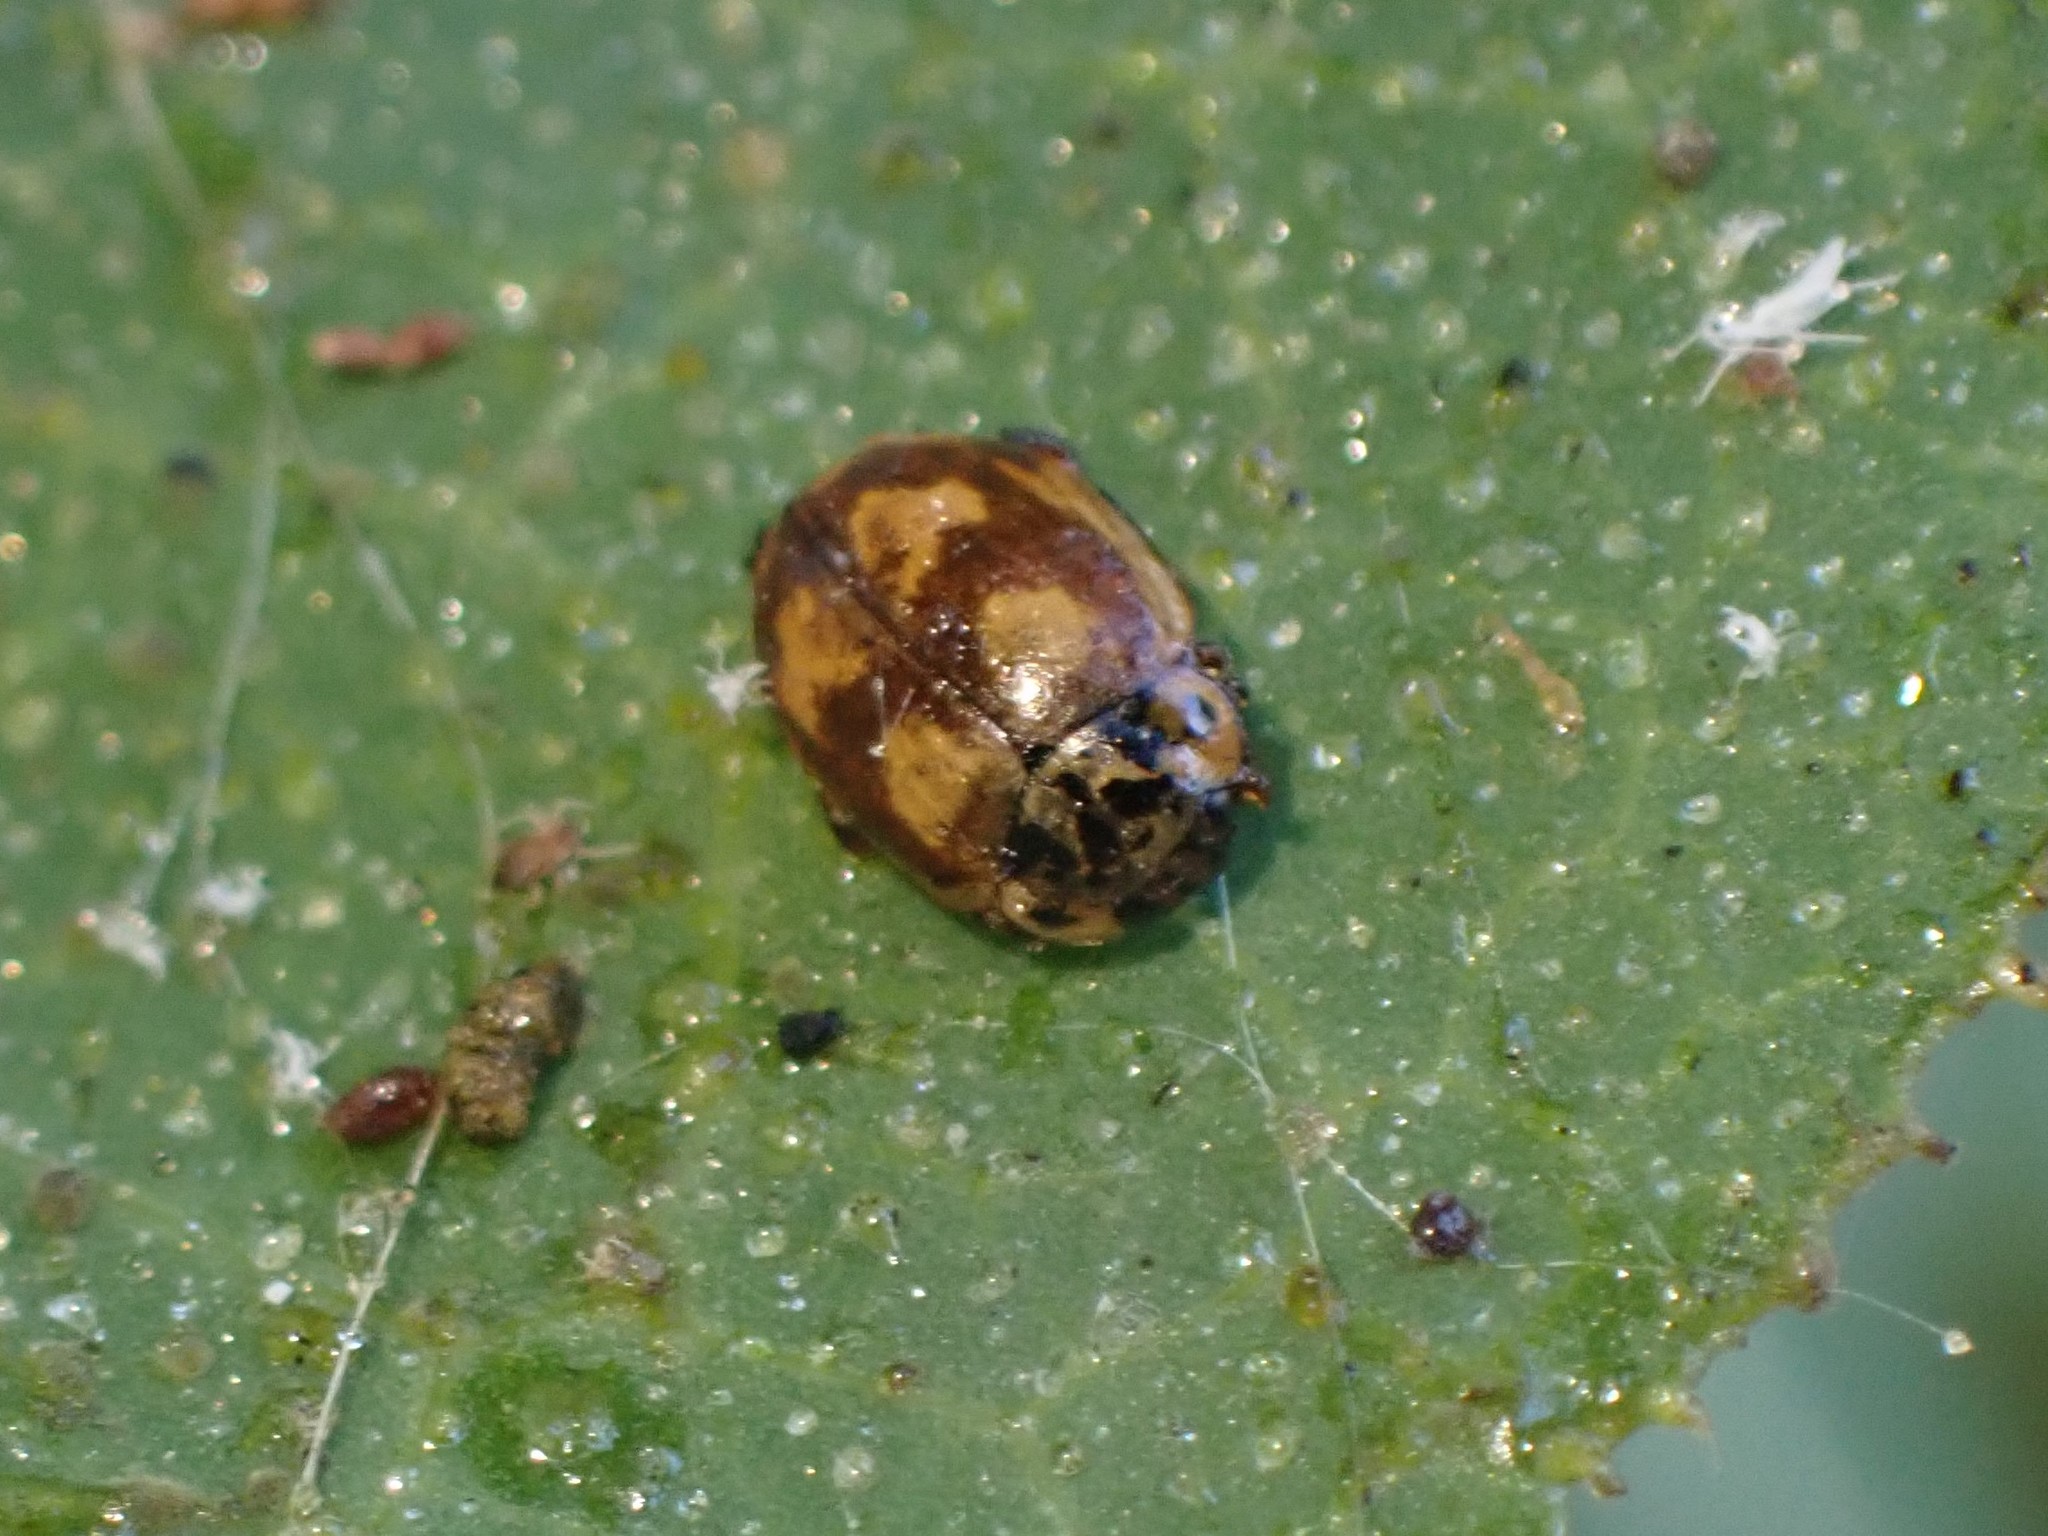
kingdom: Animalia
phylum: Arthropoda
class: Insecta
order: Coleoptera
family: Coccinellidae
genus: Mulsantina
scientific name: Mulsantina picta
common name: Painted ladybird
